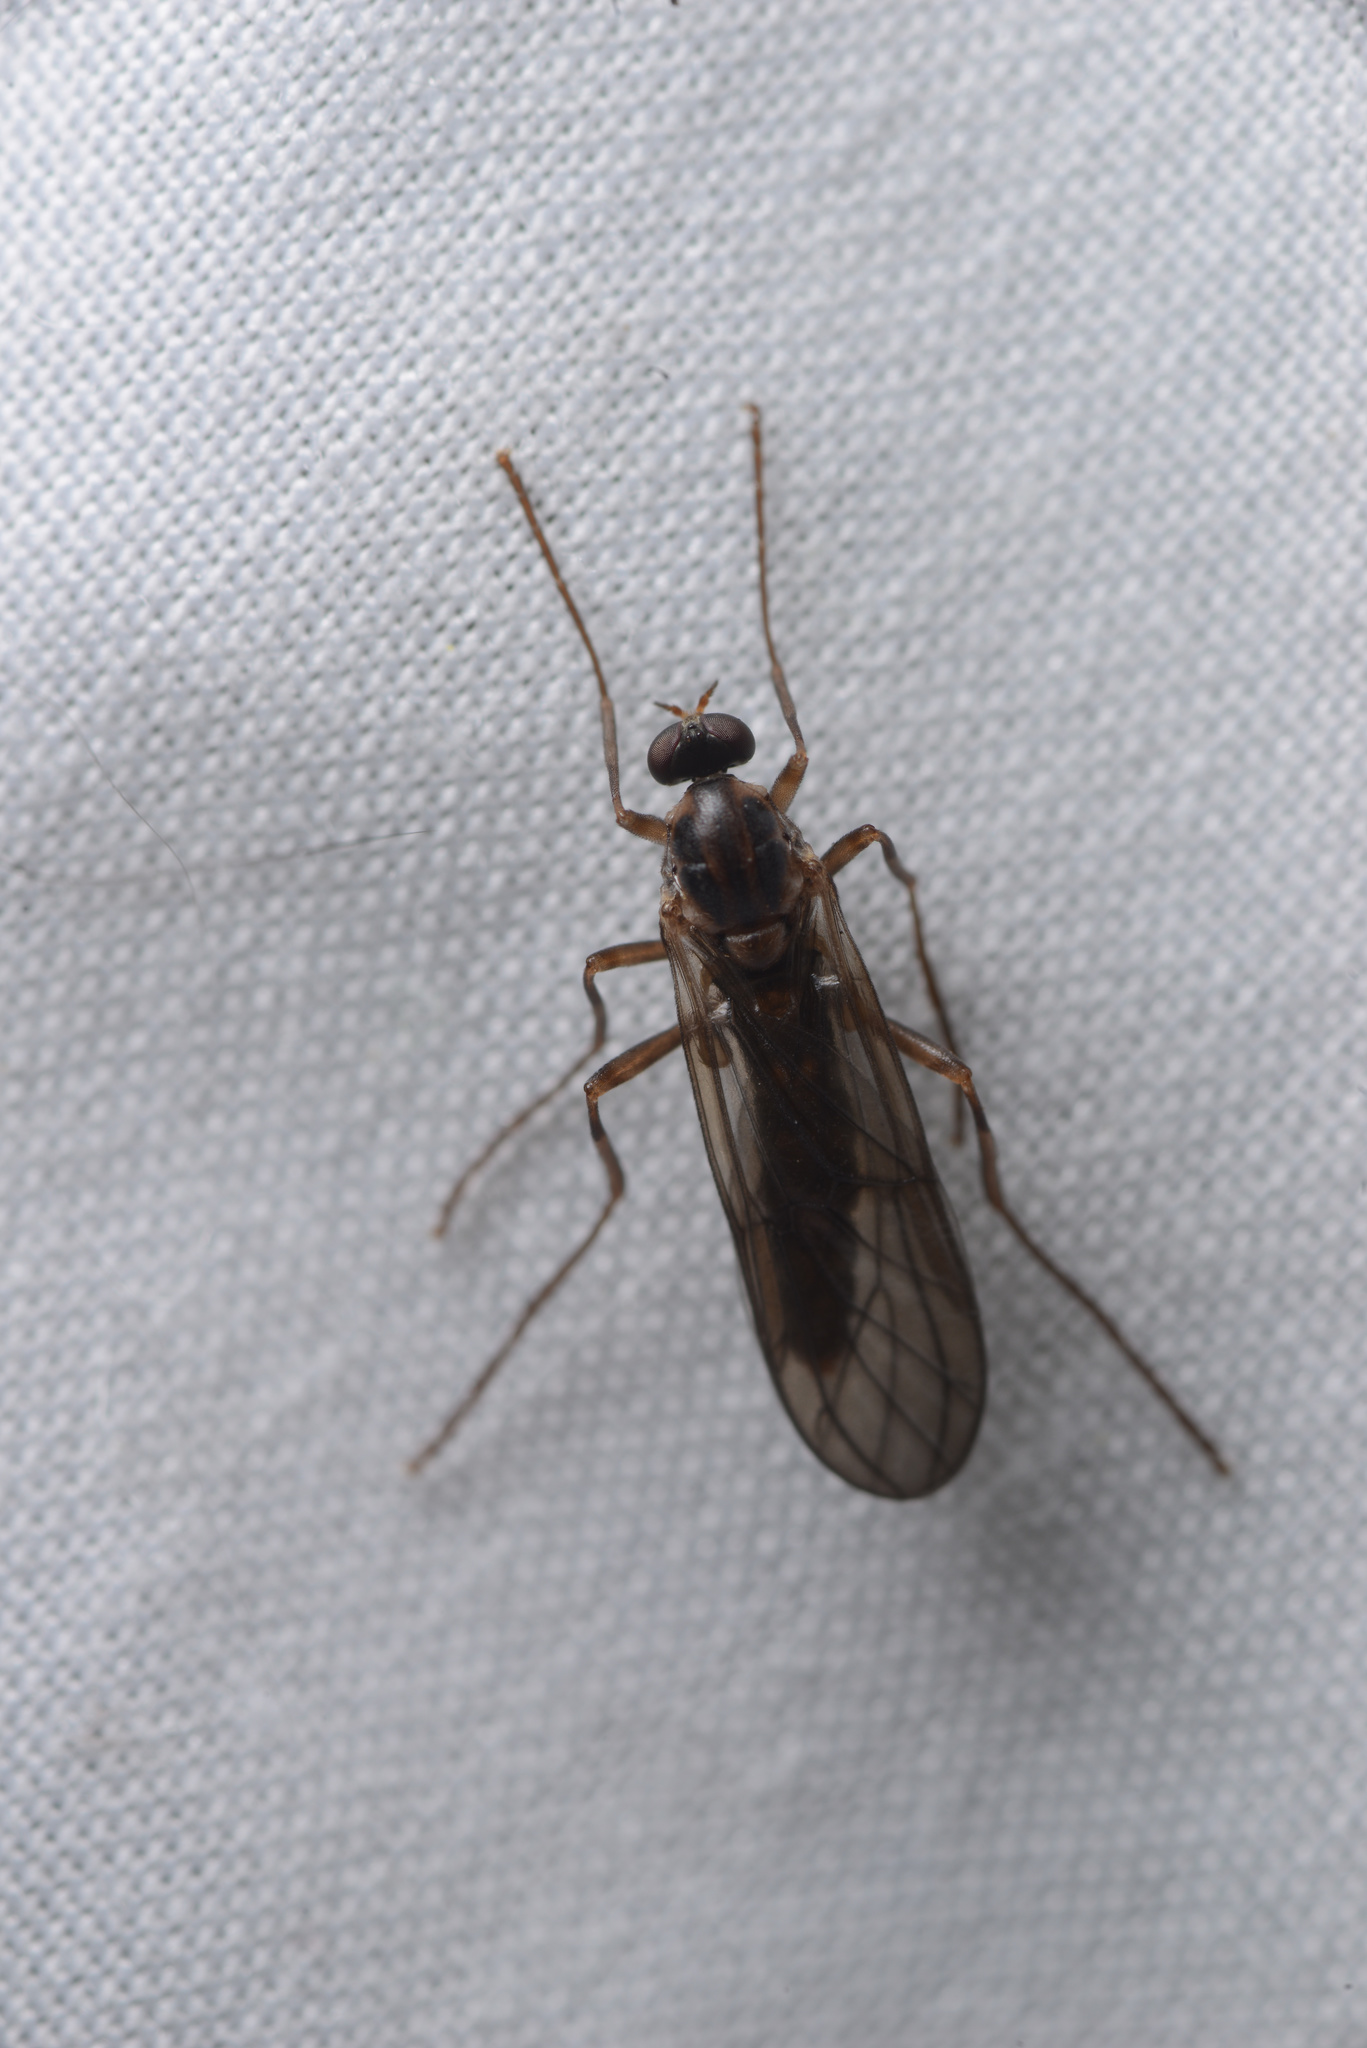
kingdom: Animalia
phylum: Arthropoda
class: Insecta
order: Diptera
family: Stratiomyidae
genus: Boreoides
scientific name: Boreoides tasmaniensis
